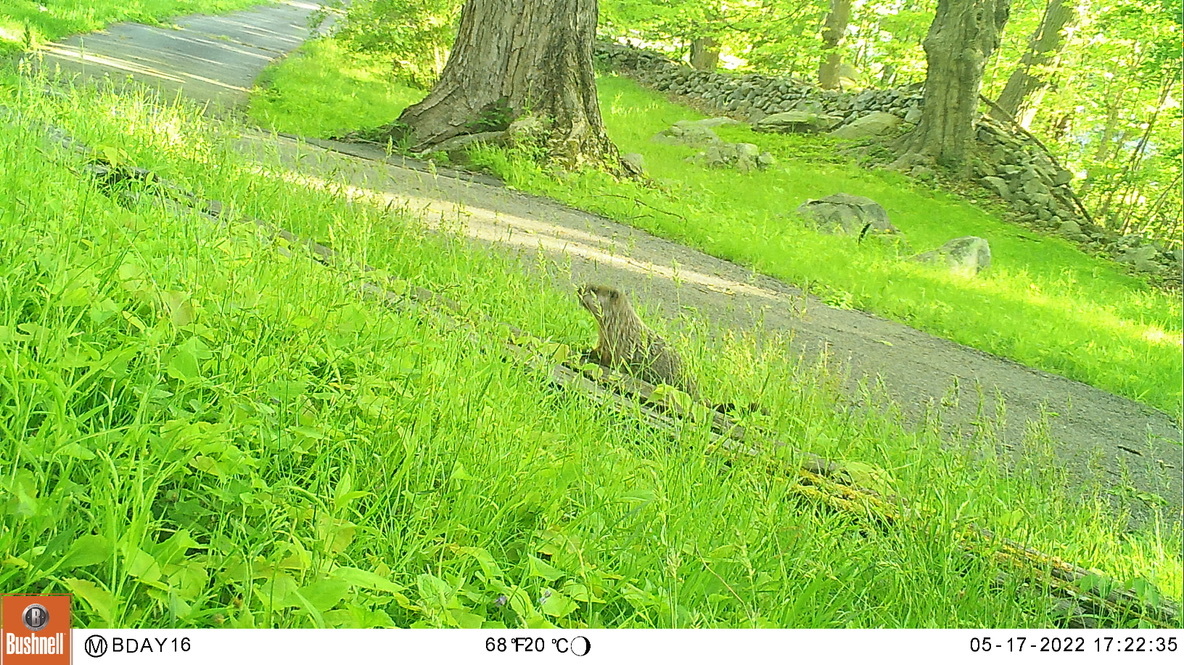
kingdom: Animalia
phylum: Chordata
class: Mammalia
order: Rodentia
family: Sciuridae
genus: Marmota
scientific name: Marmota monax
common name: Groundhog
